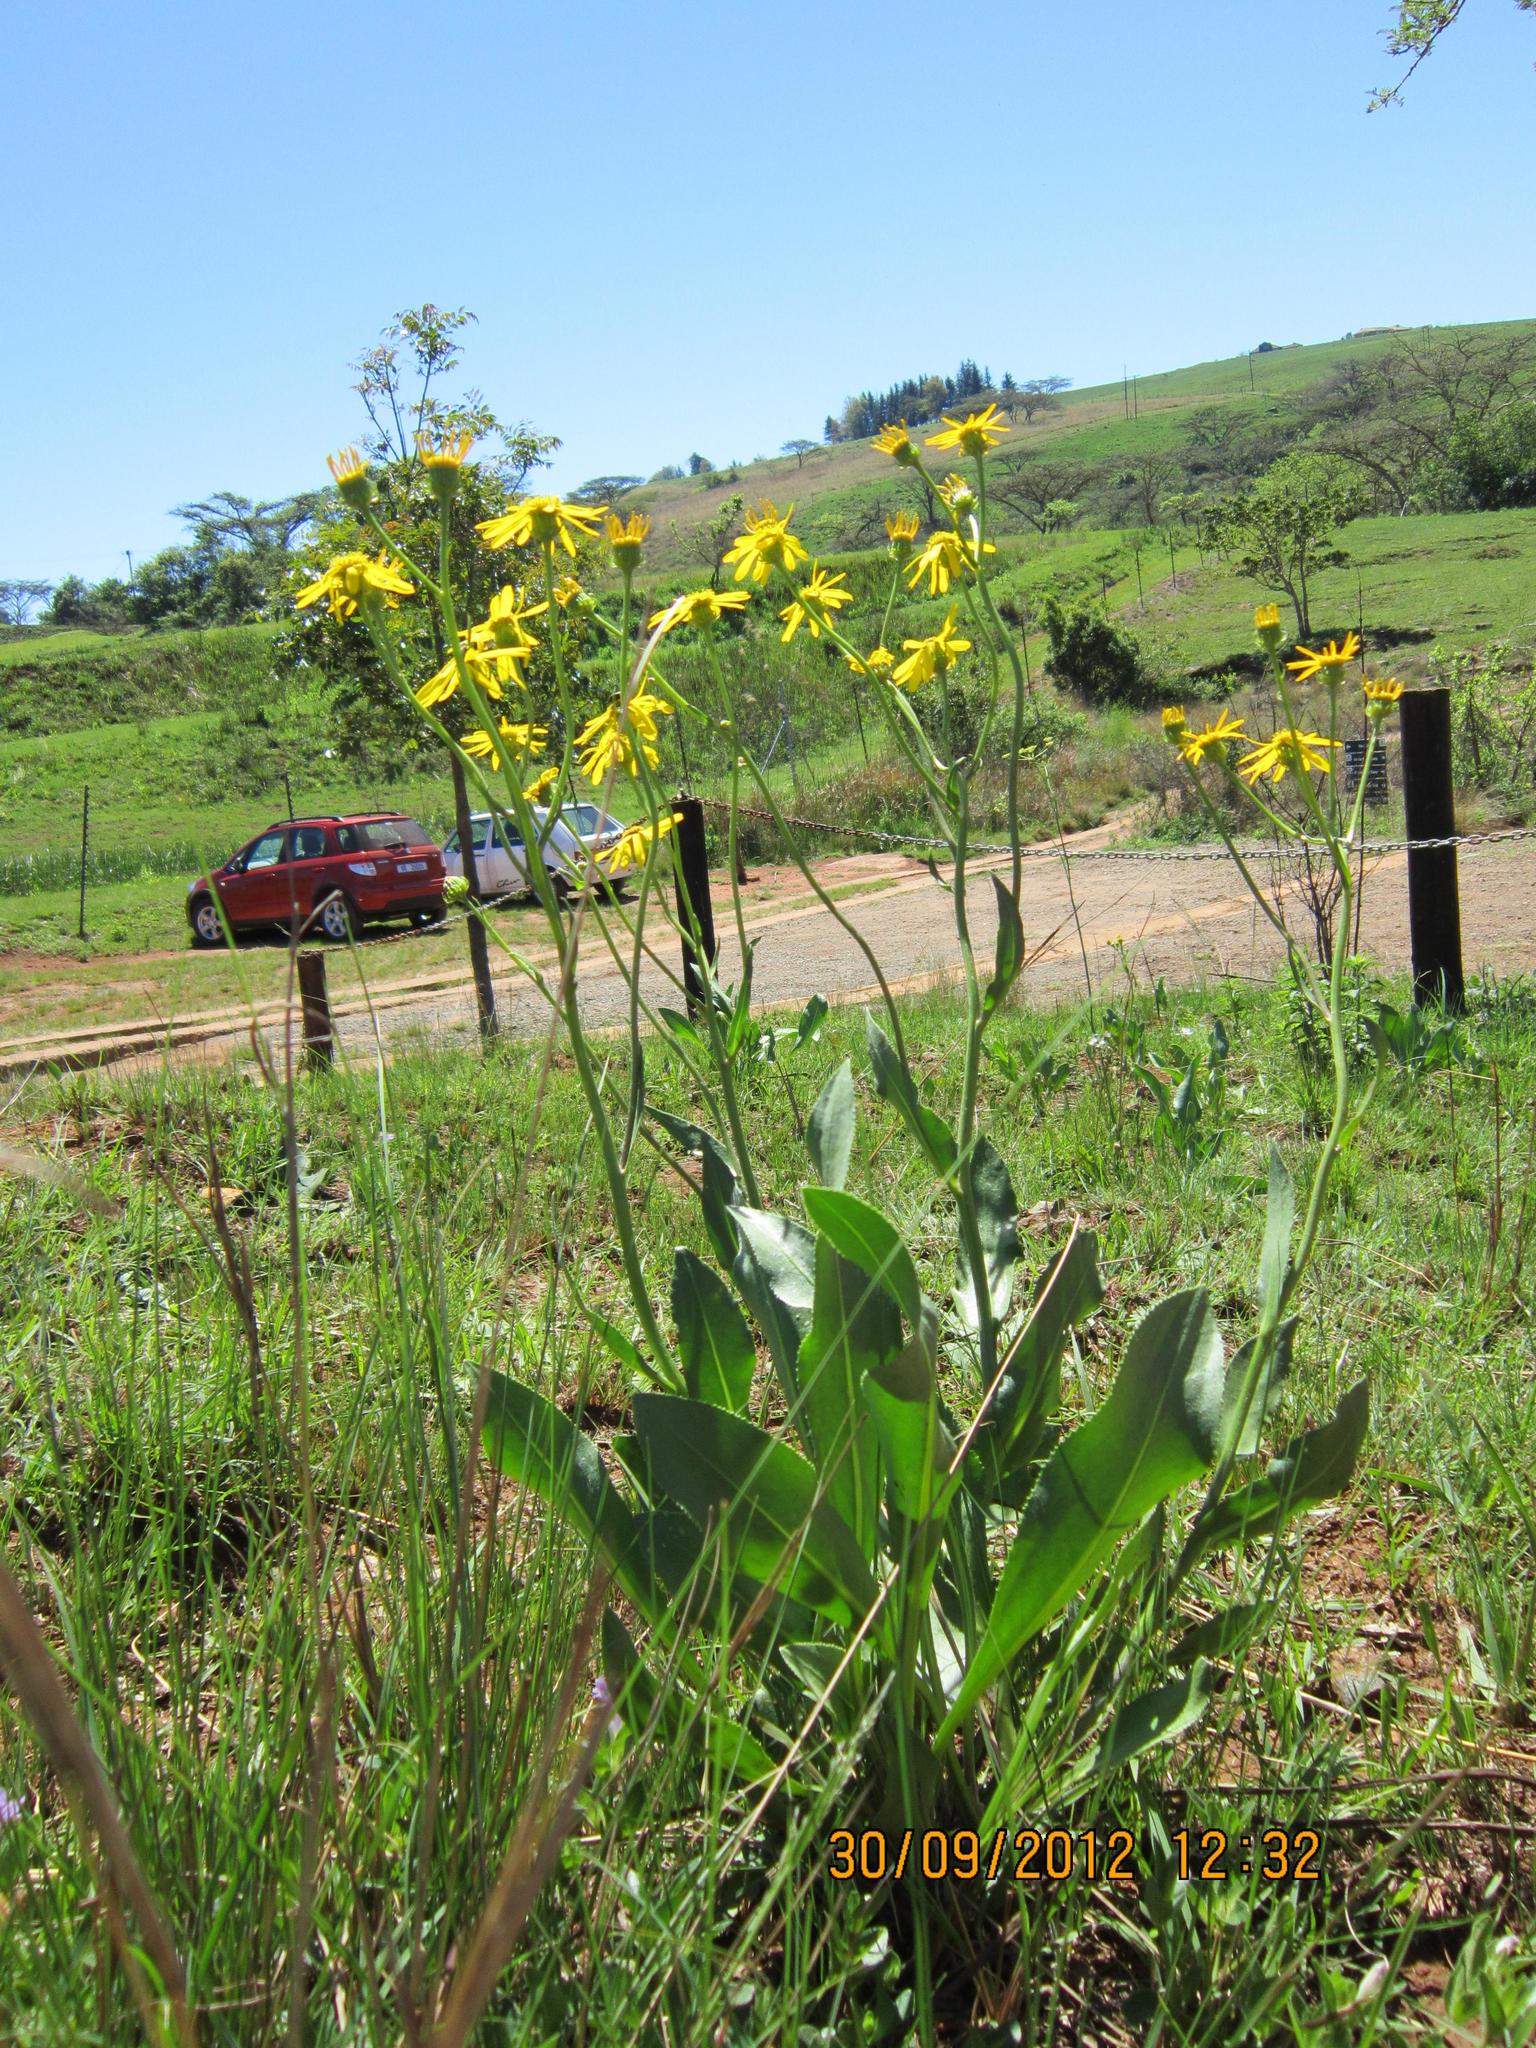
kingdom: Plantae
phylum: Tracheophyta
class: Magnoliopsida
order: Asterales
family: Asteraceae
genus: Senecio
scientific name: Senecio coronatus
